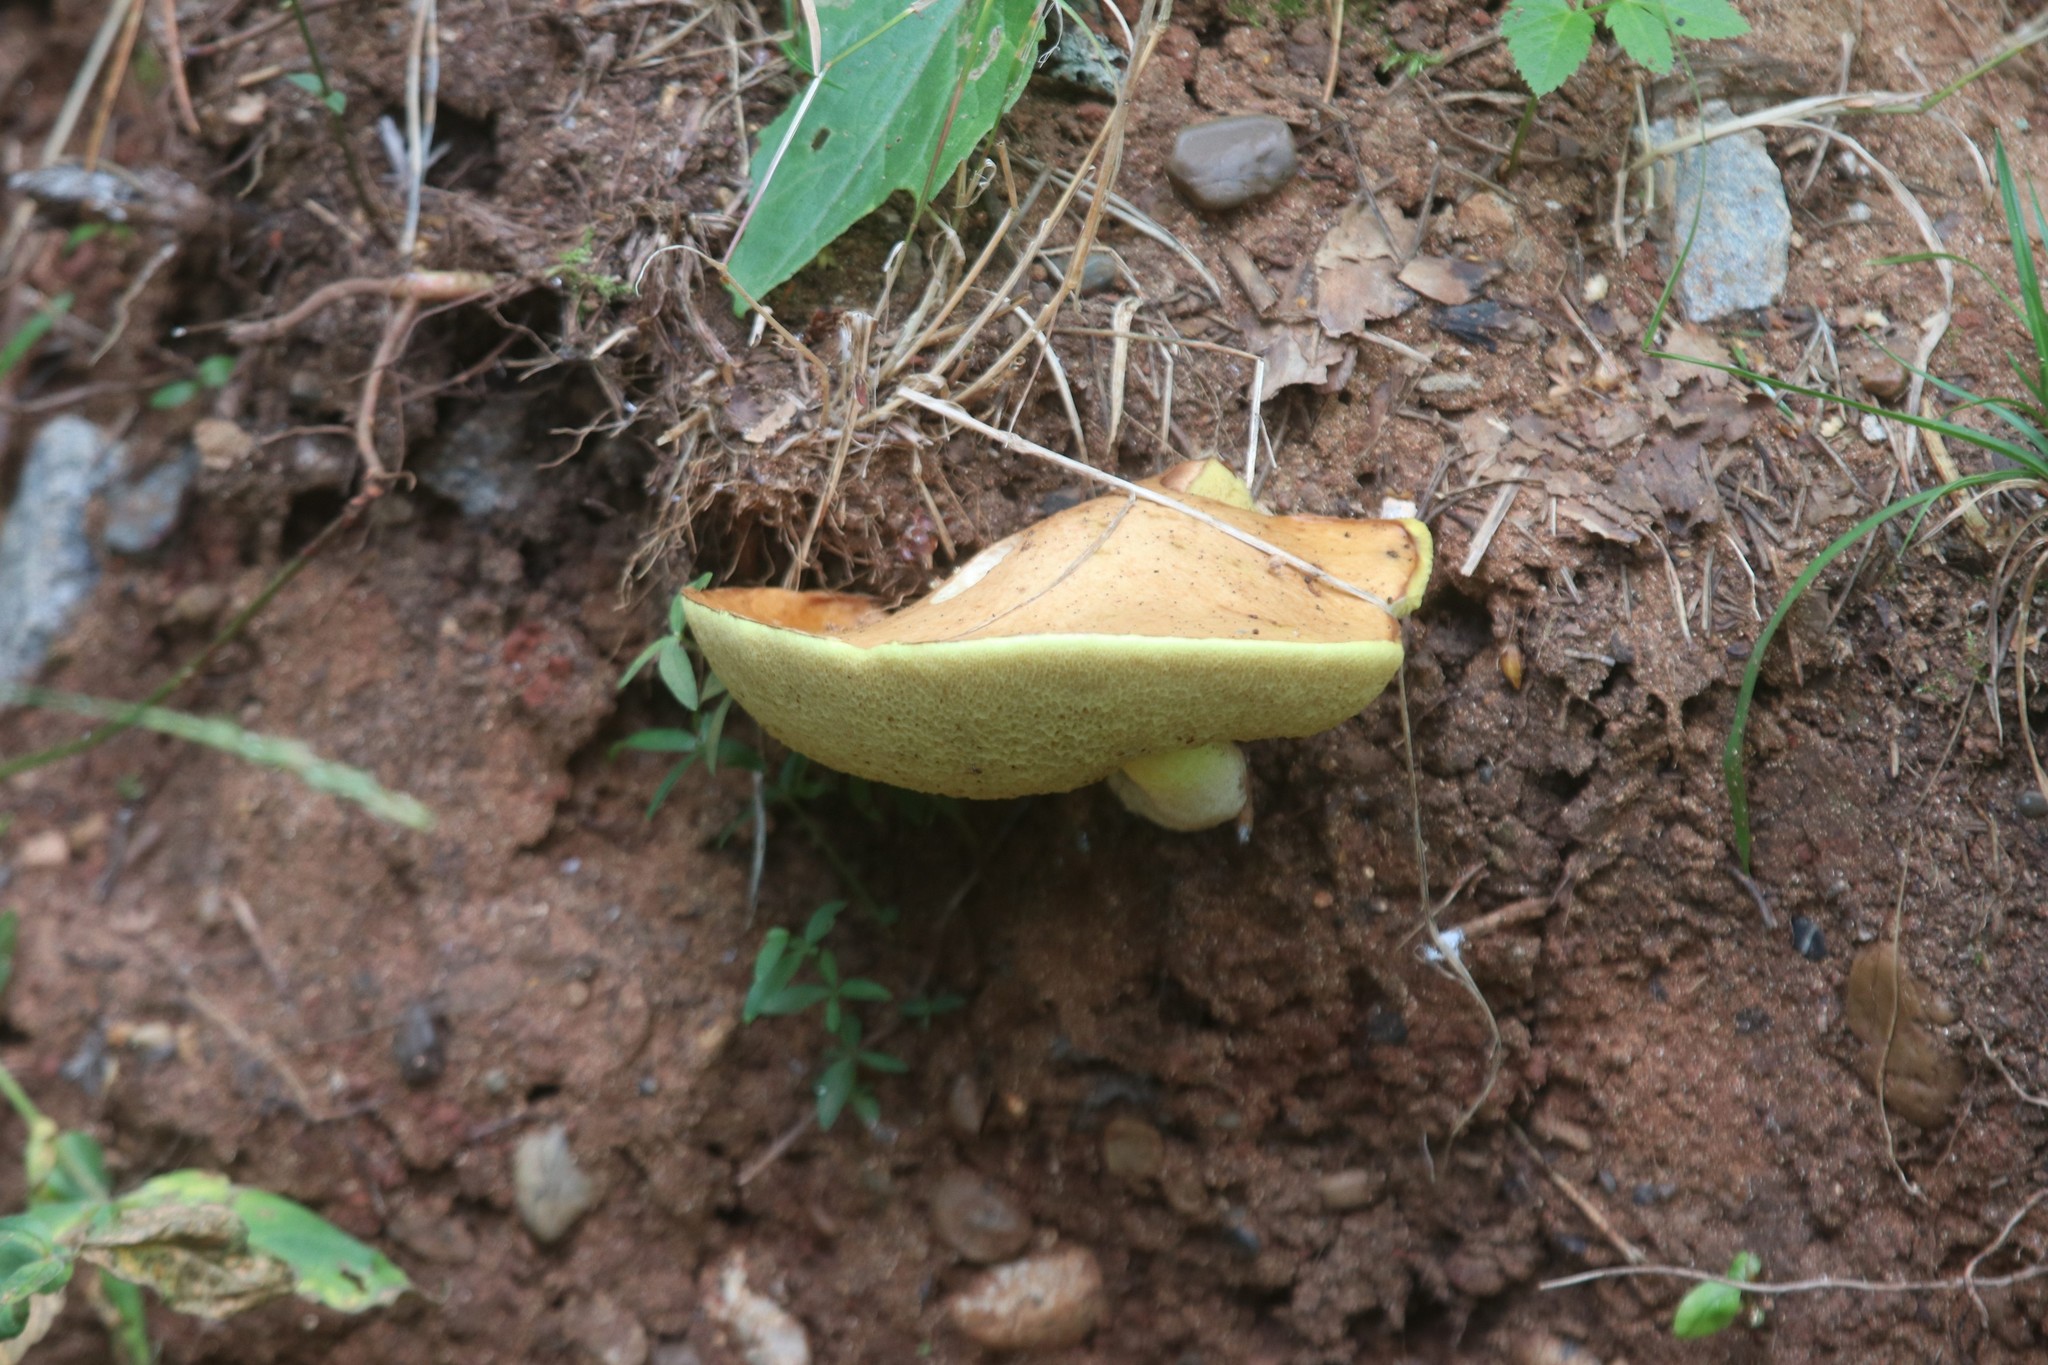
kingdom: Fungi
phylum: Basidiomycota
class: Agaricomycetes
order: Boletales
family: Suillaceae
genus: Suillus
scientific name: Suillus granulatus
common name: Weeping bolete
